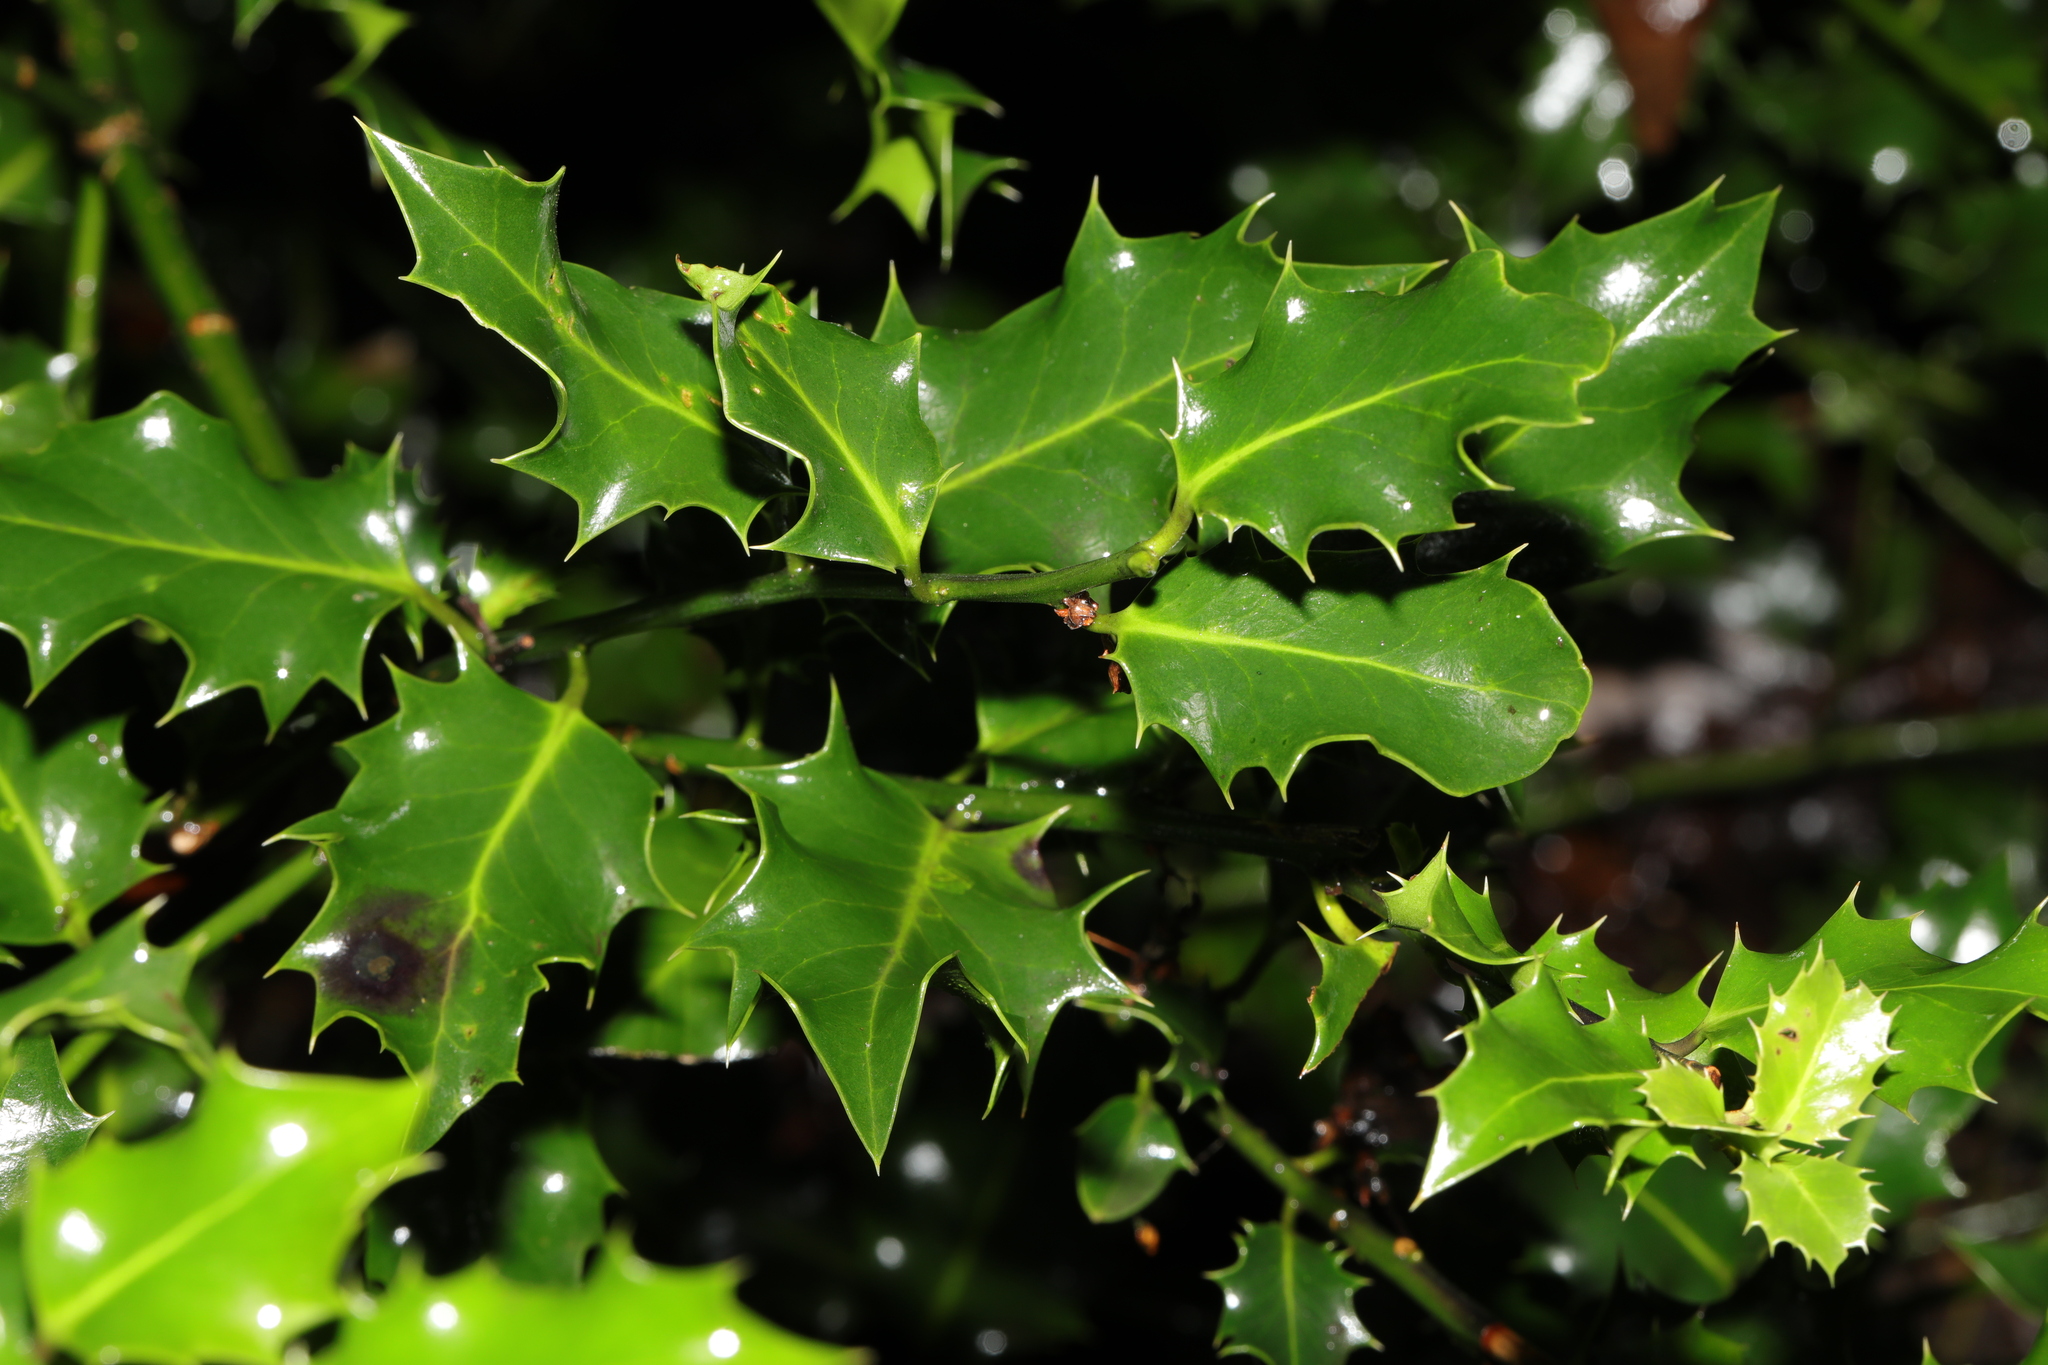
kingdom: Plantae
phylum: Tracheophyta
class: Magnoliopsida
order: Aquifoliales
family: Aquifoliaceae
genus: Ilex
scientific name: Ilex aquifolium
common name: English holly
